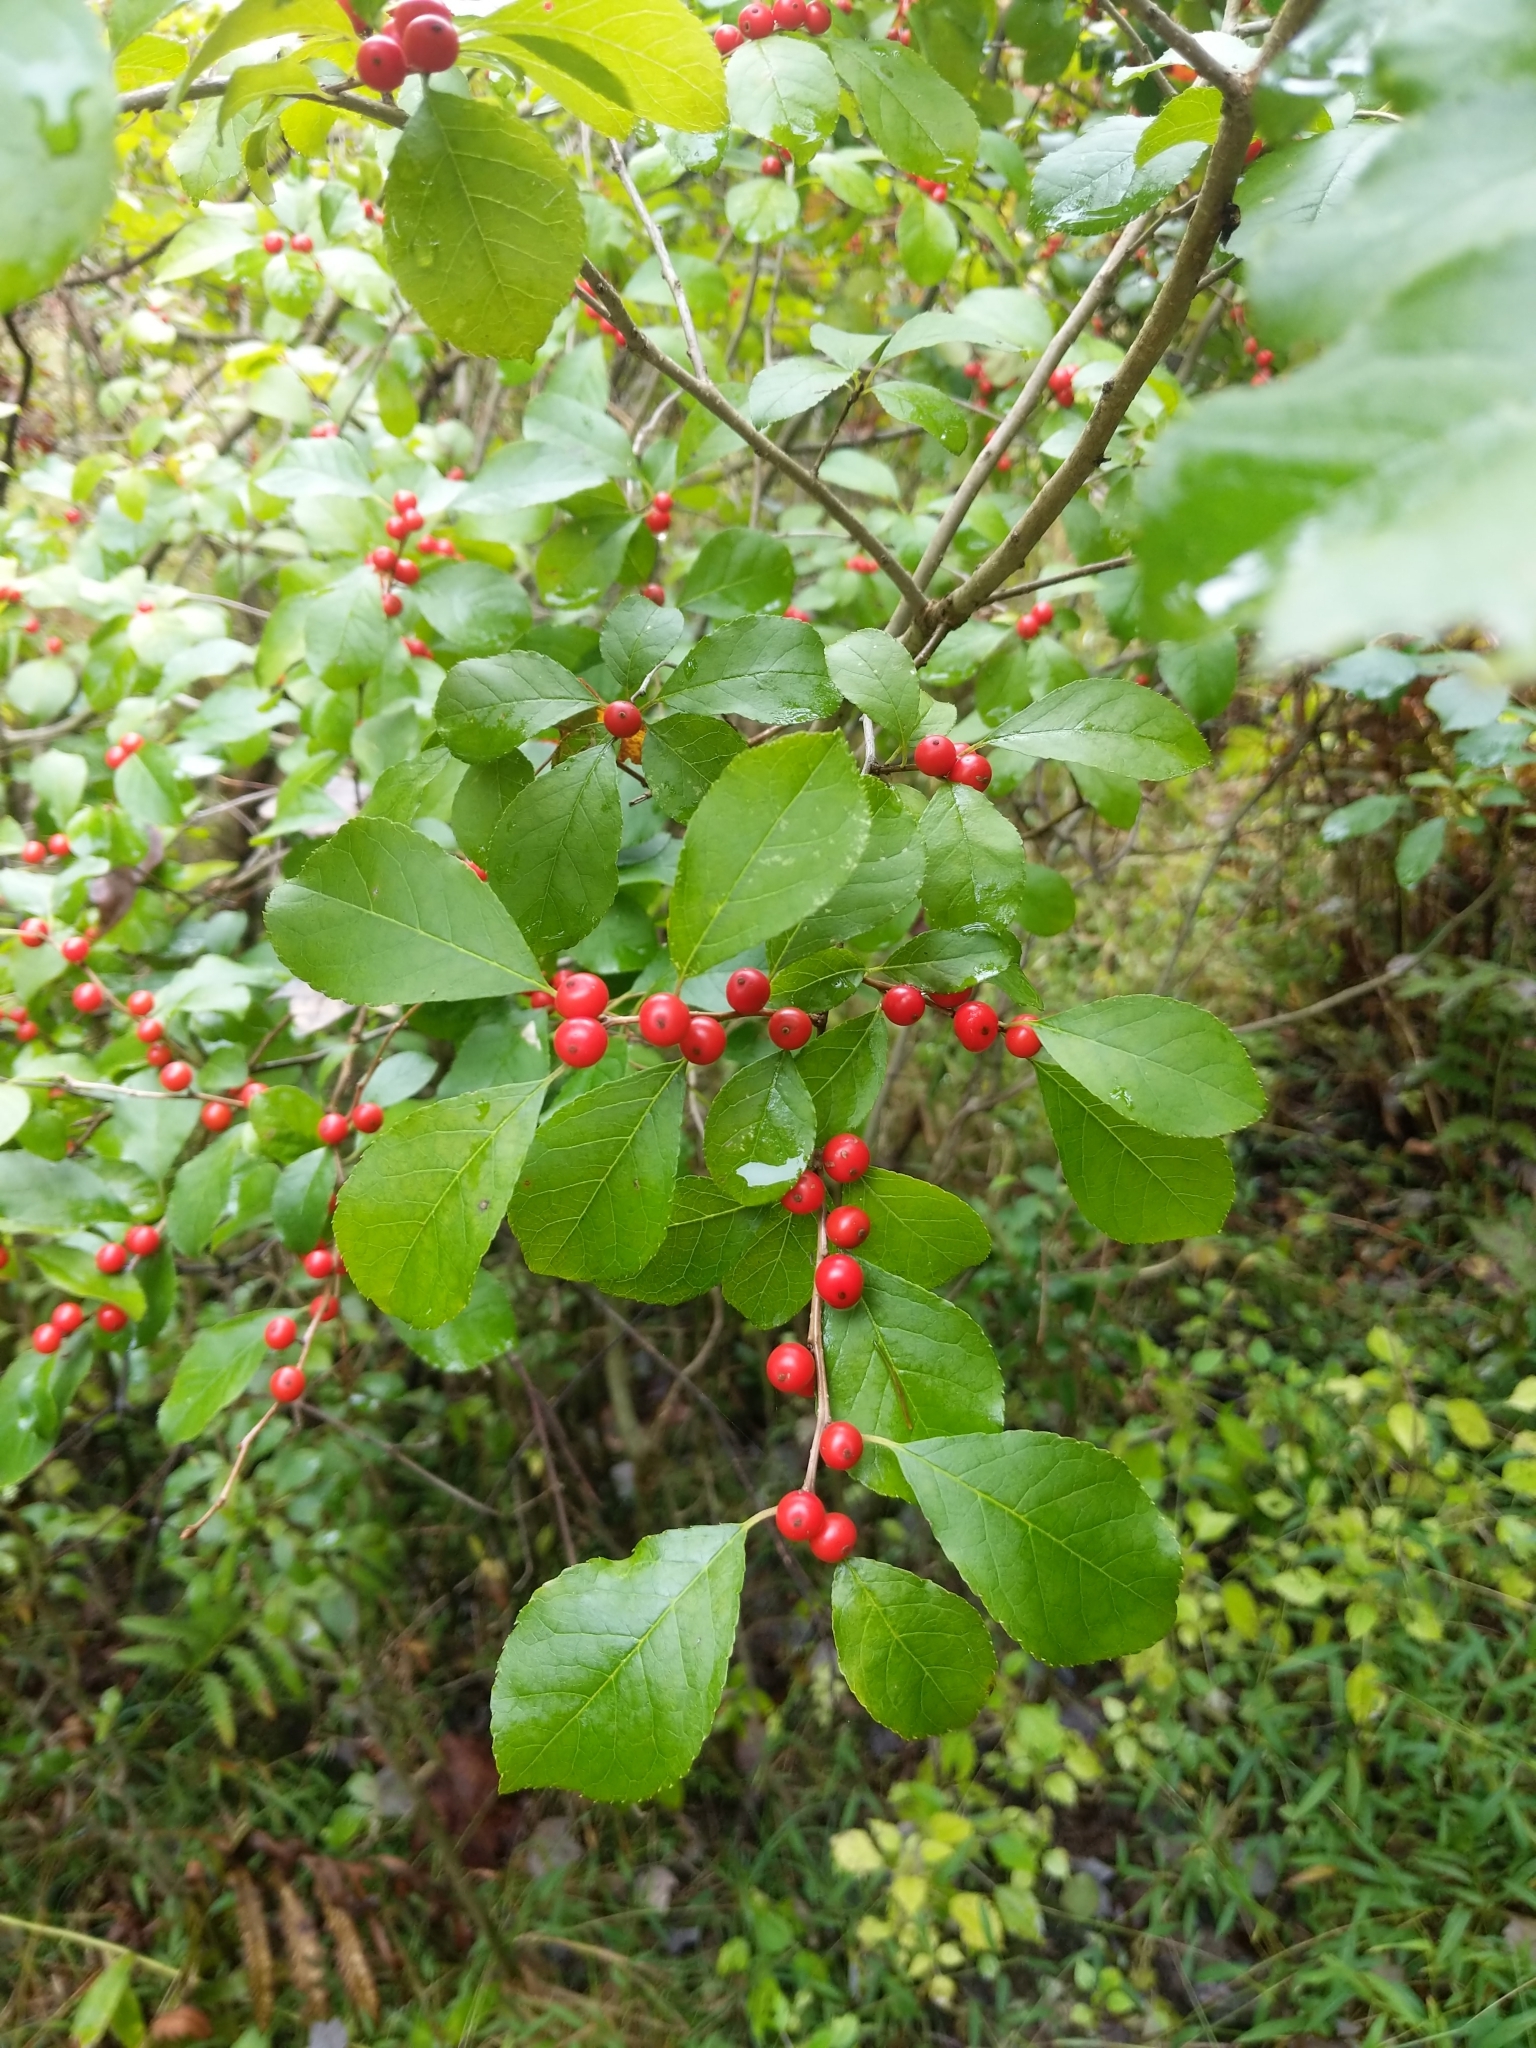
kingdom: Plantae
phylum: Tracheophyta
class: Magnoliopsida
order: Aquifoliales
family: Aquifoliaceae
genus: Ilex
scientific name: Ilex verticillata
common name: Virginia winterberry
